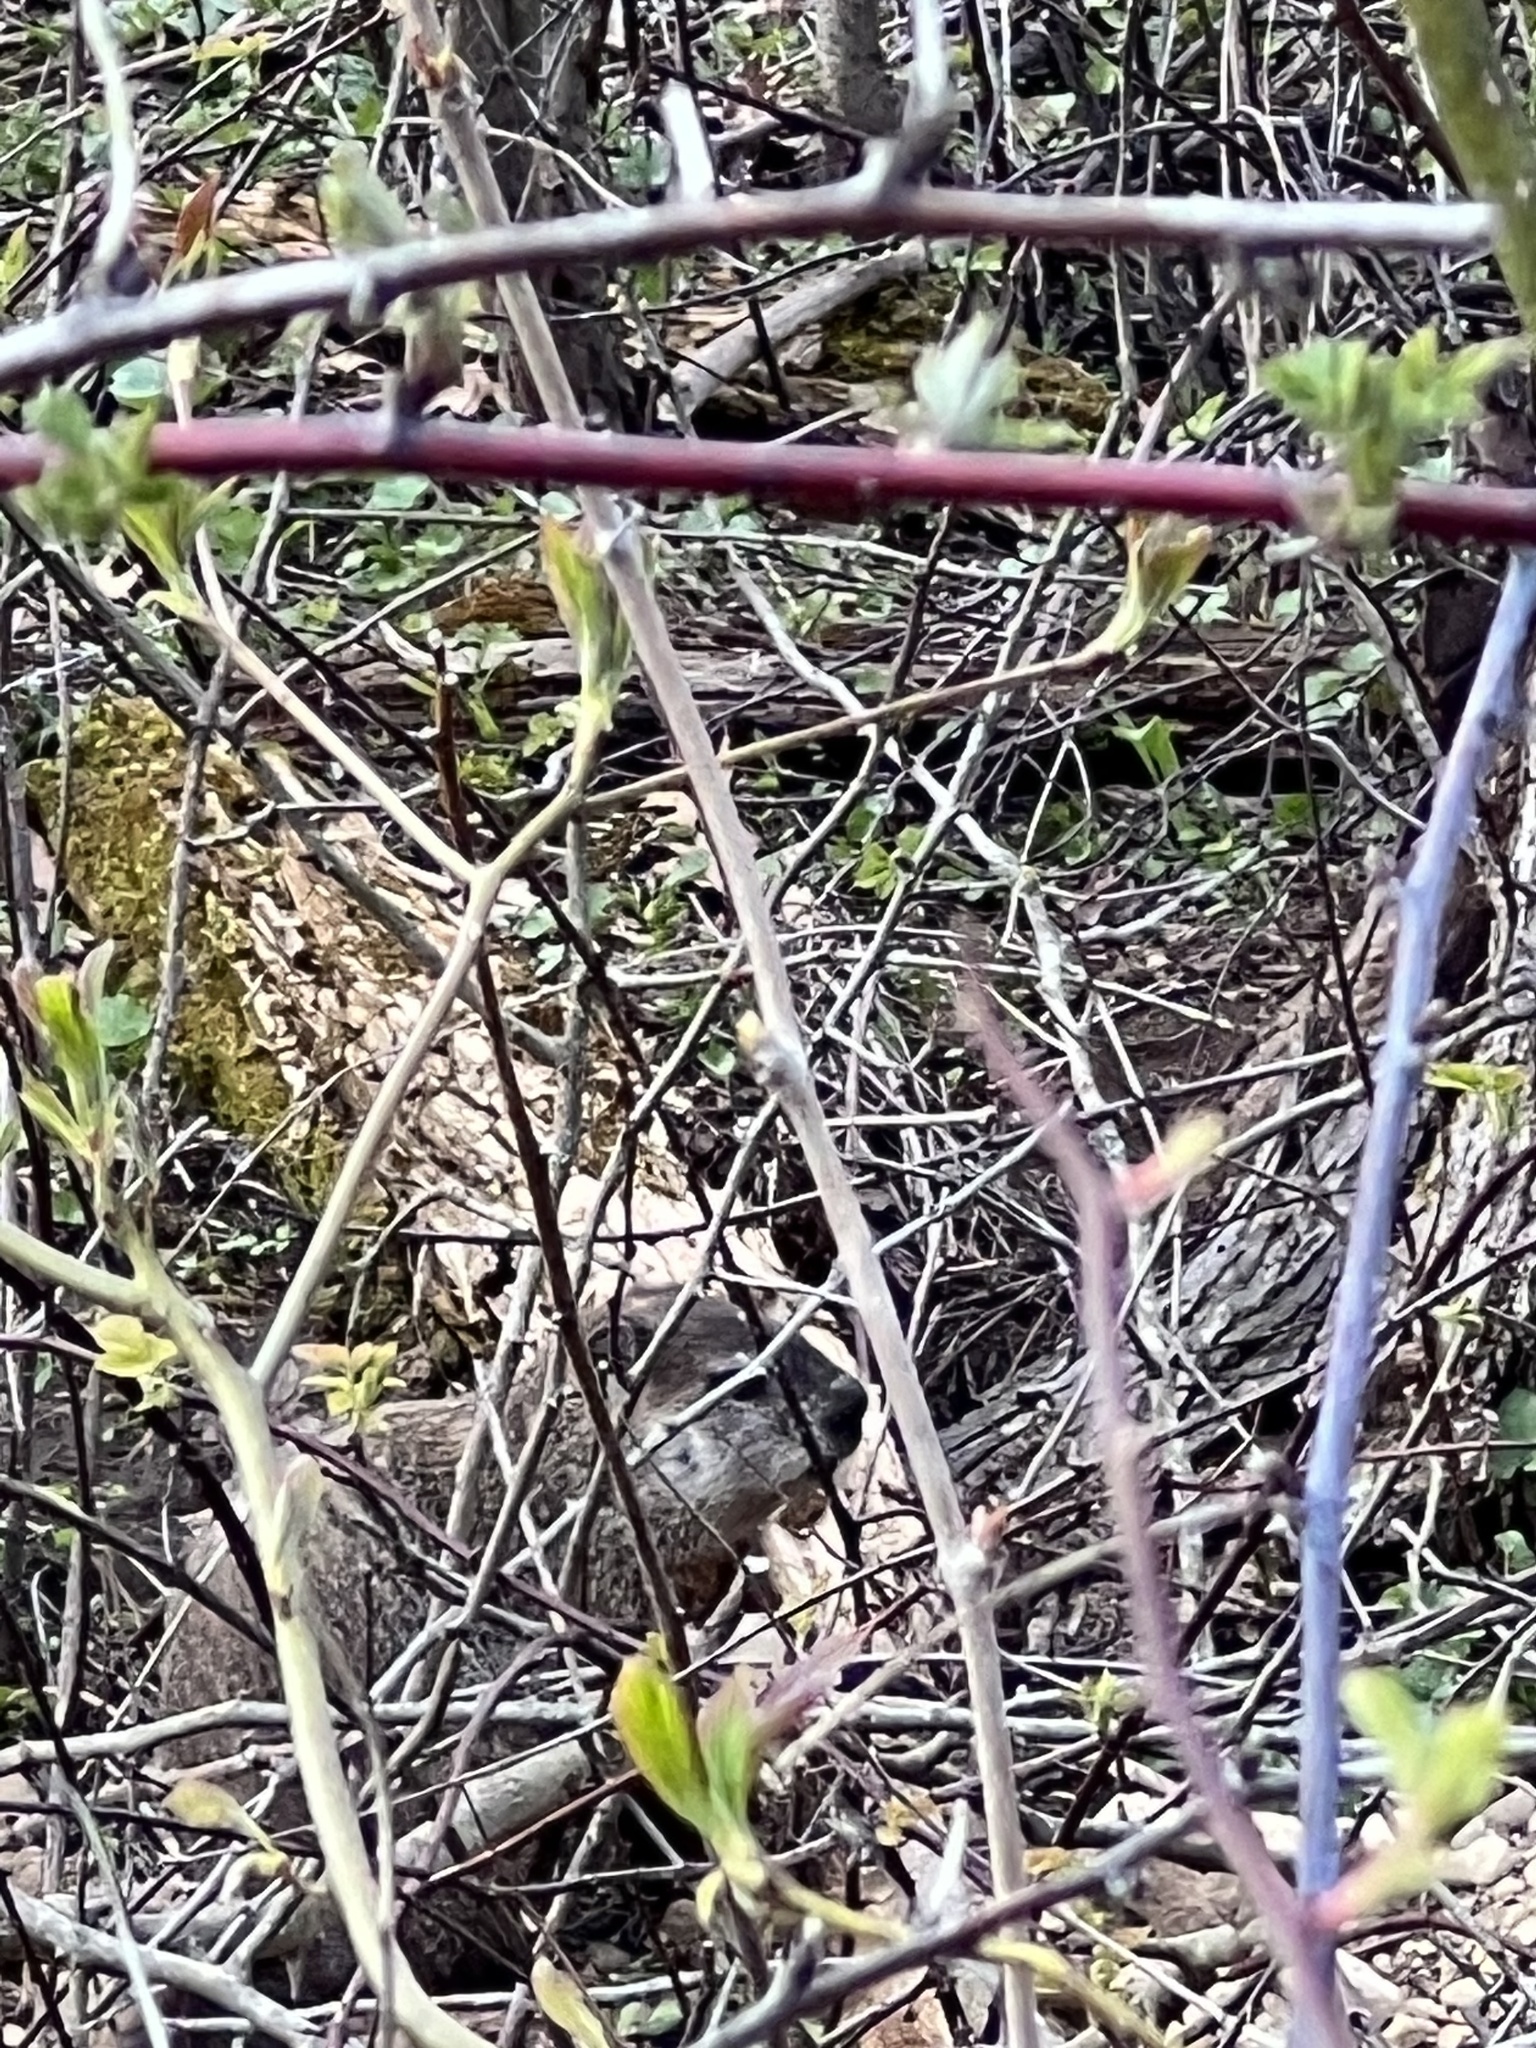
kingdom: Animalia
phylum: Chordata
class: Mammalia
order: Rodentia
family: Sciuridae
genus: Marmota
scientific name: Marmota monax
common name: Groundhog
